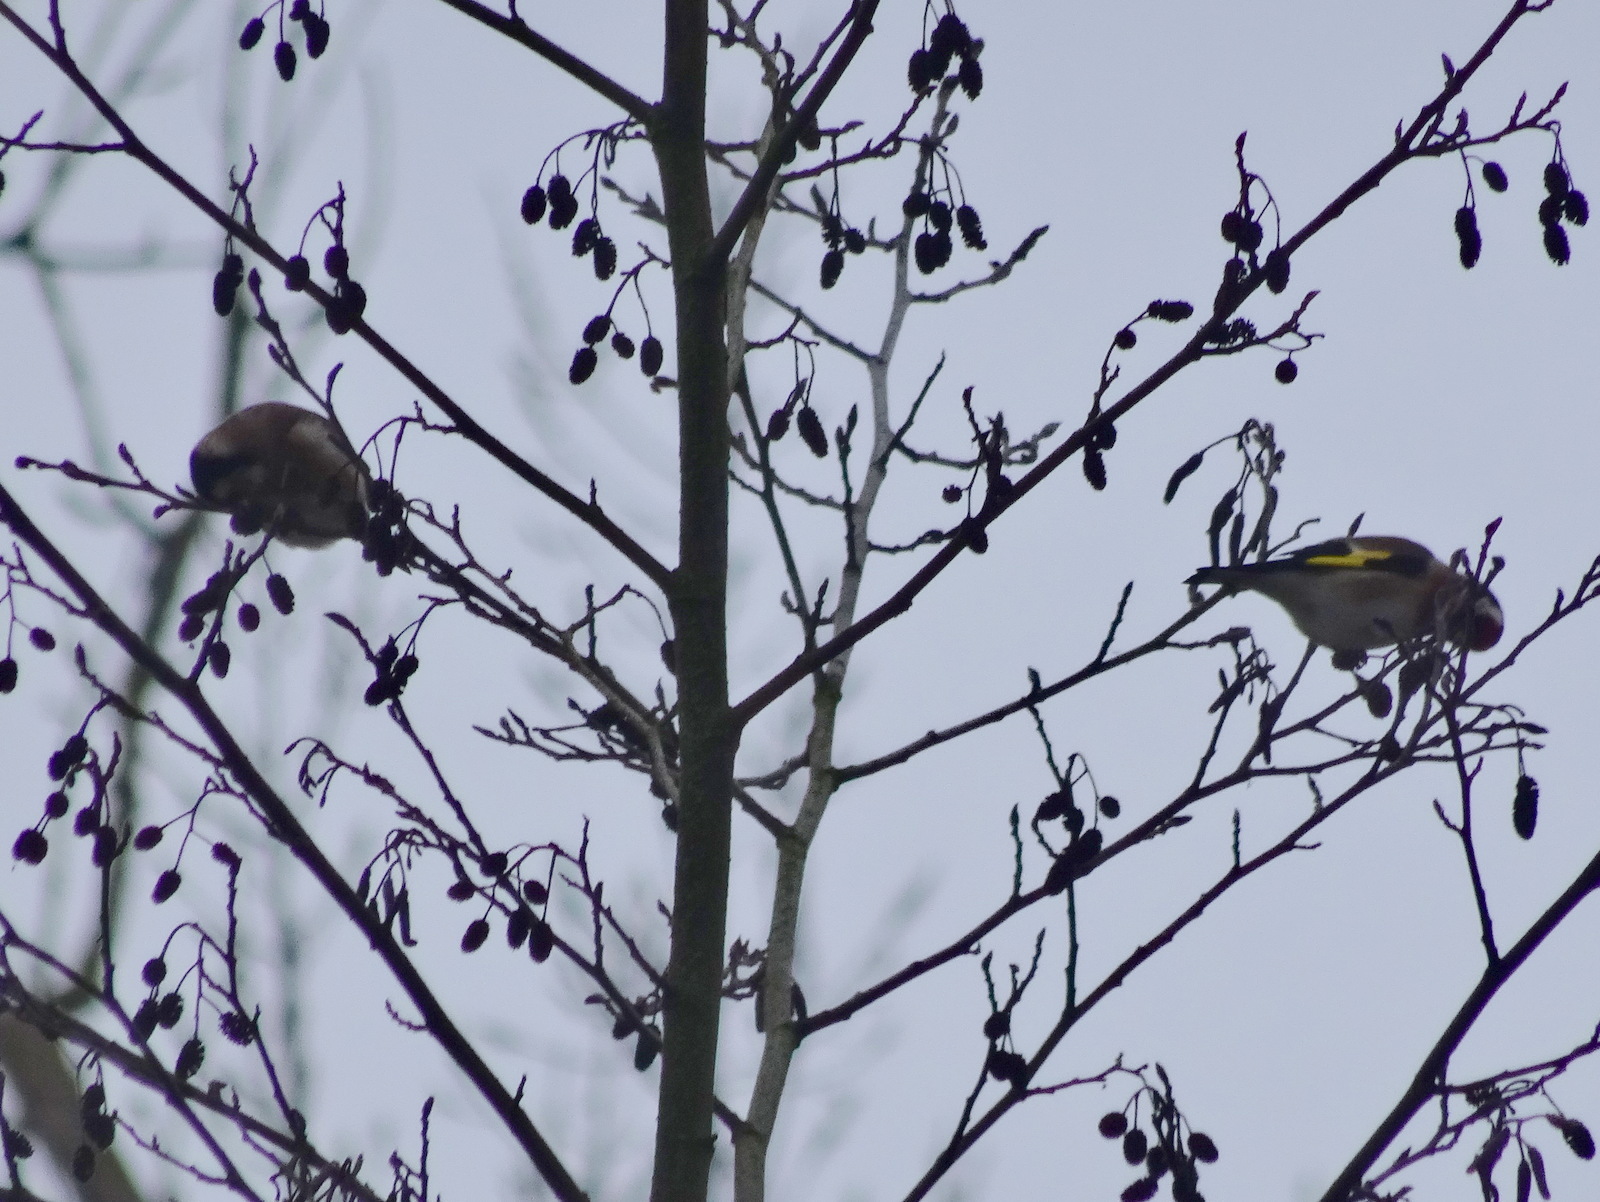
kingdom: Animalia
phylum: Chordata
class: Aves
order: Passeriformes
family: Fringillidae
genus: Carduelis
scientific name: Carduelis carduelis
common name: European goldfinch
